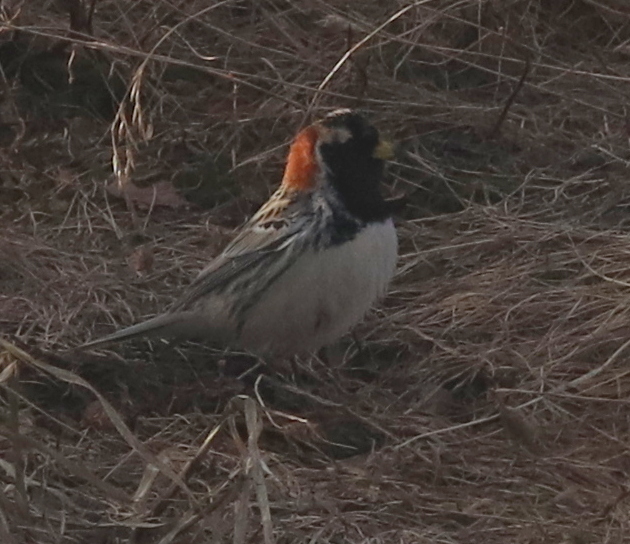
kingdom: Animalia
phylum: Chordata
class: Aves
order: Passeriformes
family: Calcariidae
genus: Calcarius
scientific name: Calcarius lapponicus
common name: Lapland longspur
